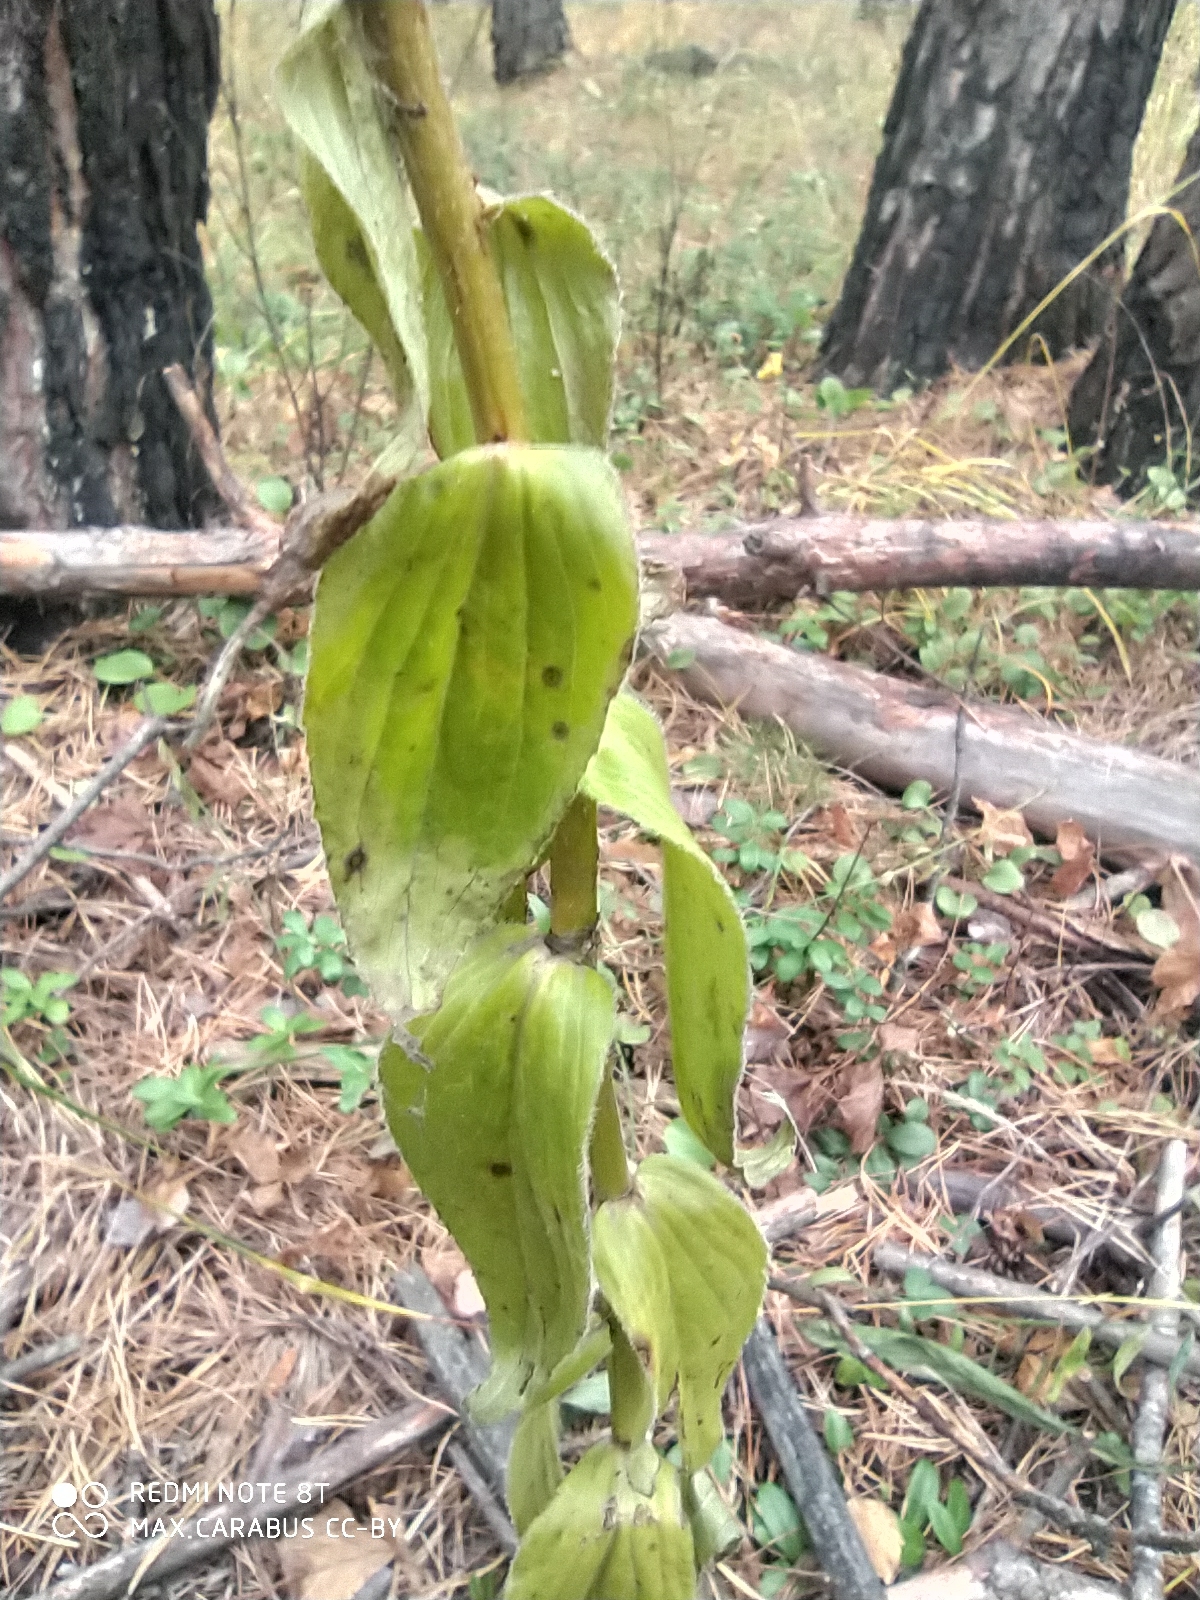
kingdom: Plantae
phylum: Tracheophyta
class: Magnoliopsida
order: Lamiales
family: Plantaginaceae
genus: Digitalis
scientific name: Digitalis grandiflora
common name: Yellow foxglove
